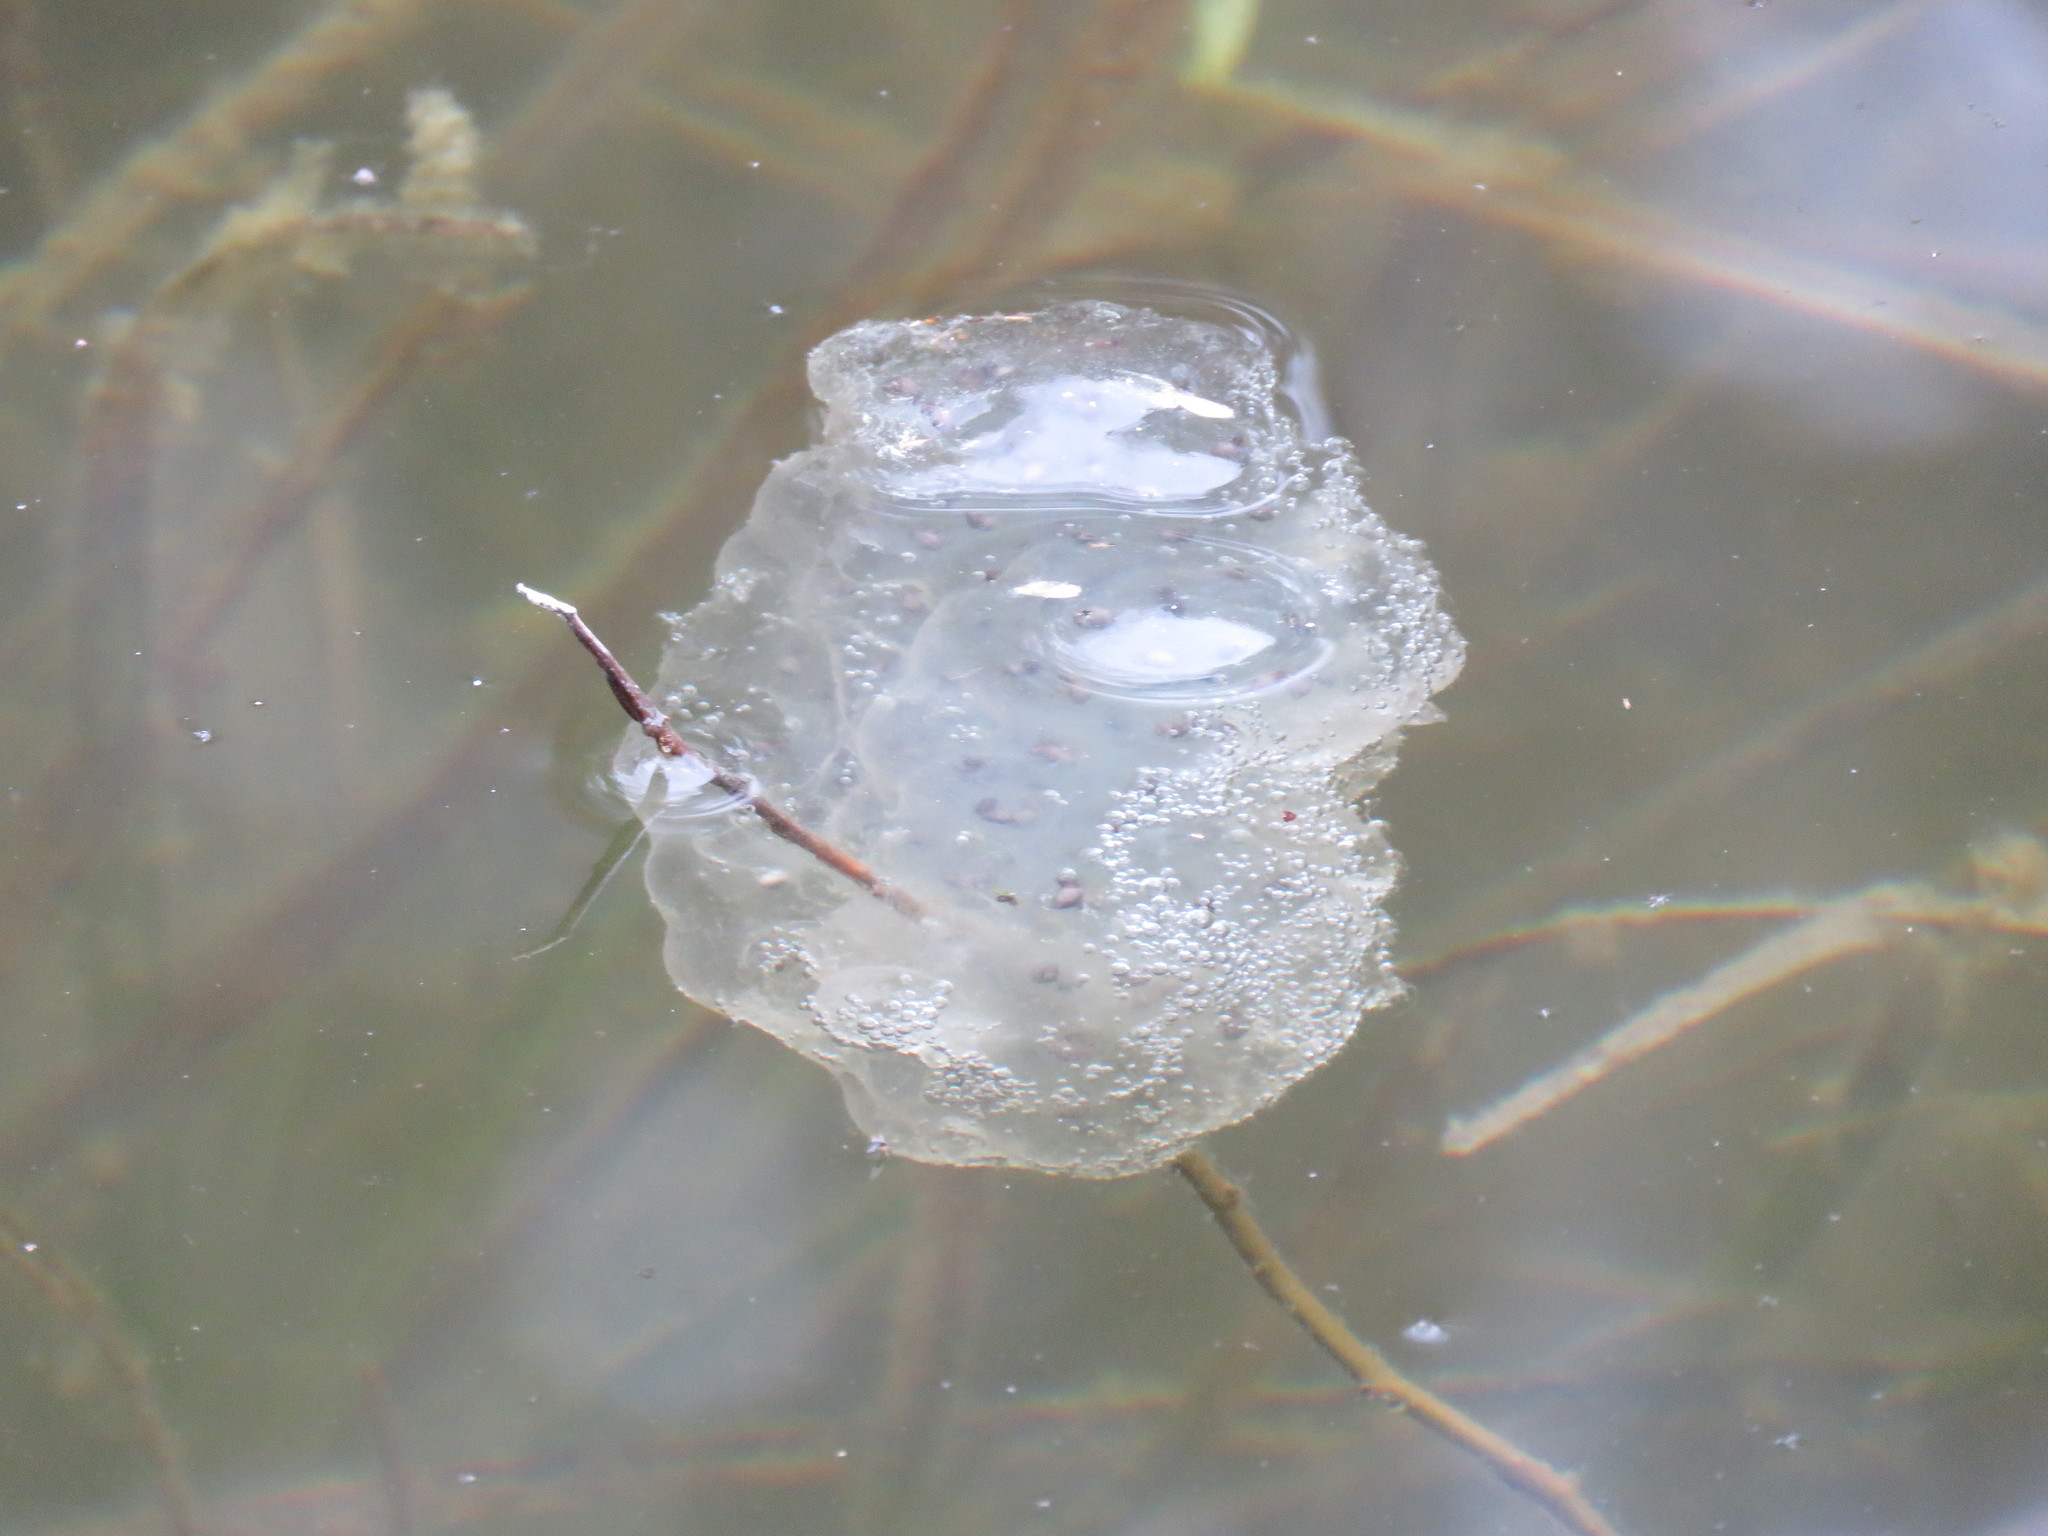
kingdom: Animalia
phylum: Chordata
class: Amphibia
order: Caudata
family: Ambystomatidae
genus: Ambystoma
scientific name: Ambystoma maculatum
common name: Spotted salamander
